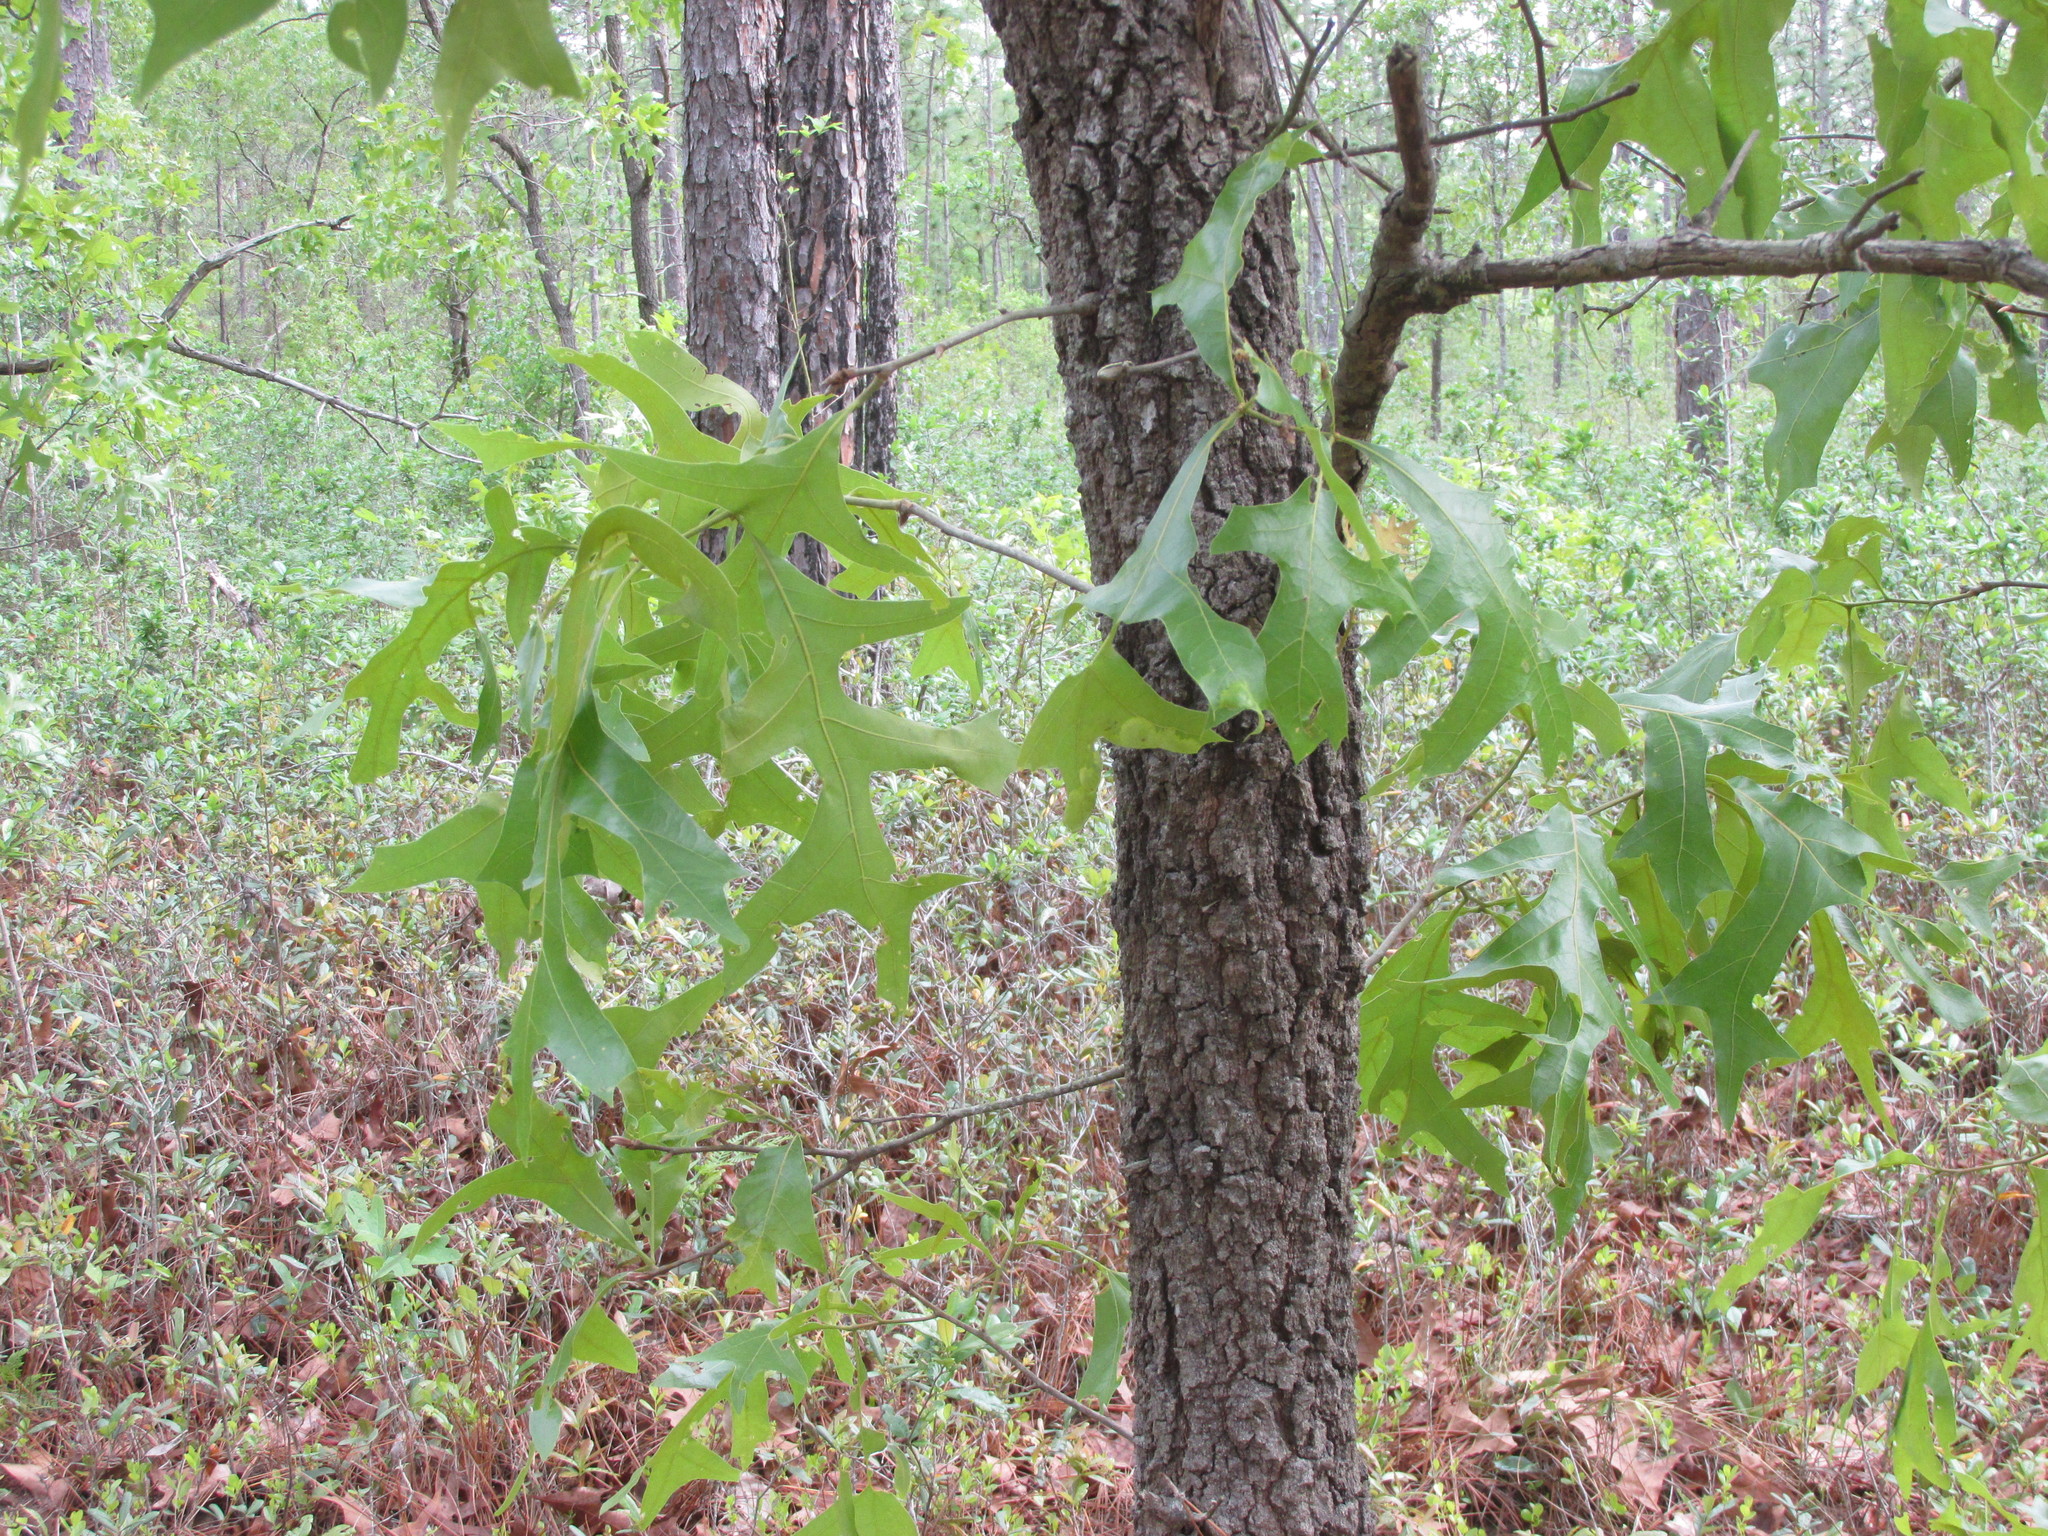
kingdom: Plantae
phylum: Tracheophyta
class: Magnoliopsida
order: Fagales
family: Fagaceae
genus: Quercus
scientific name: Quercus laevis
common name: Turkey oak
